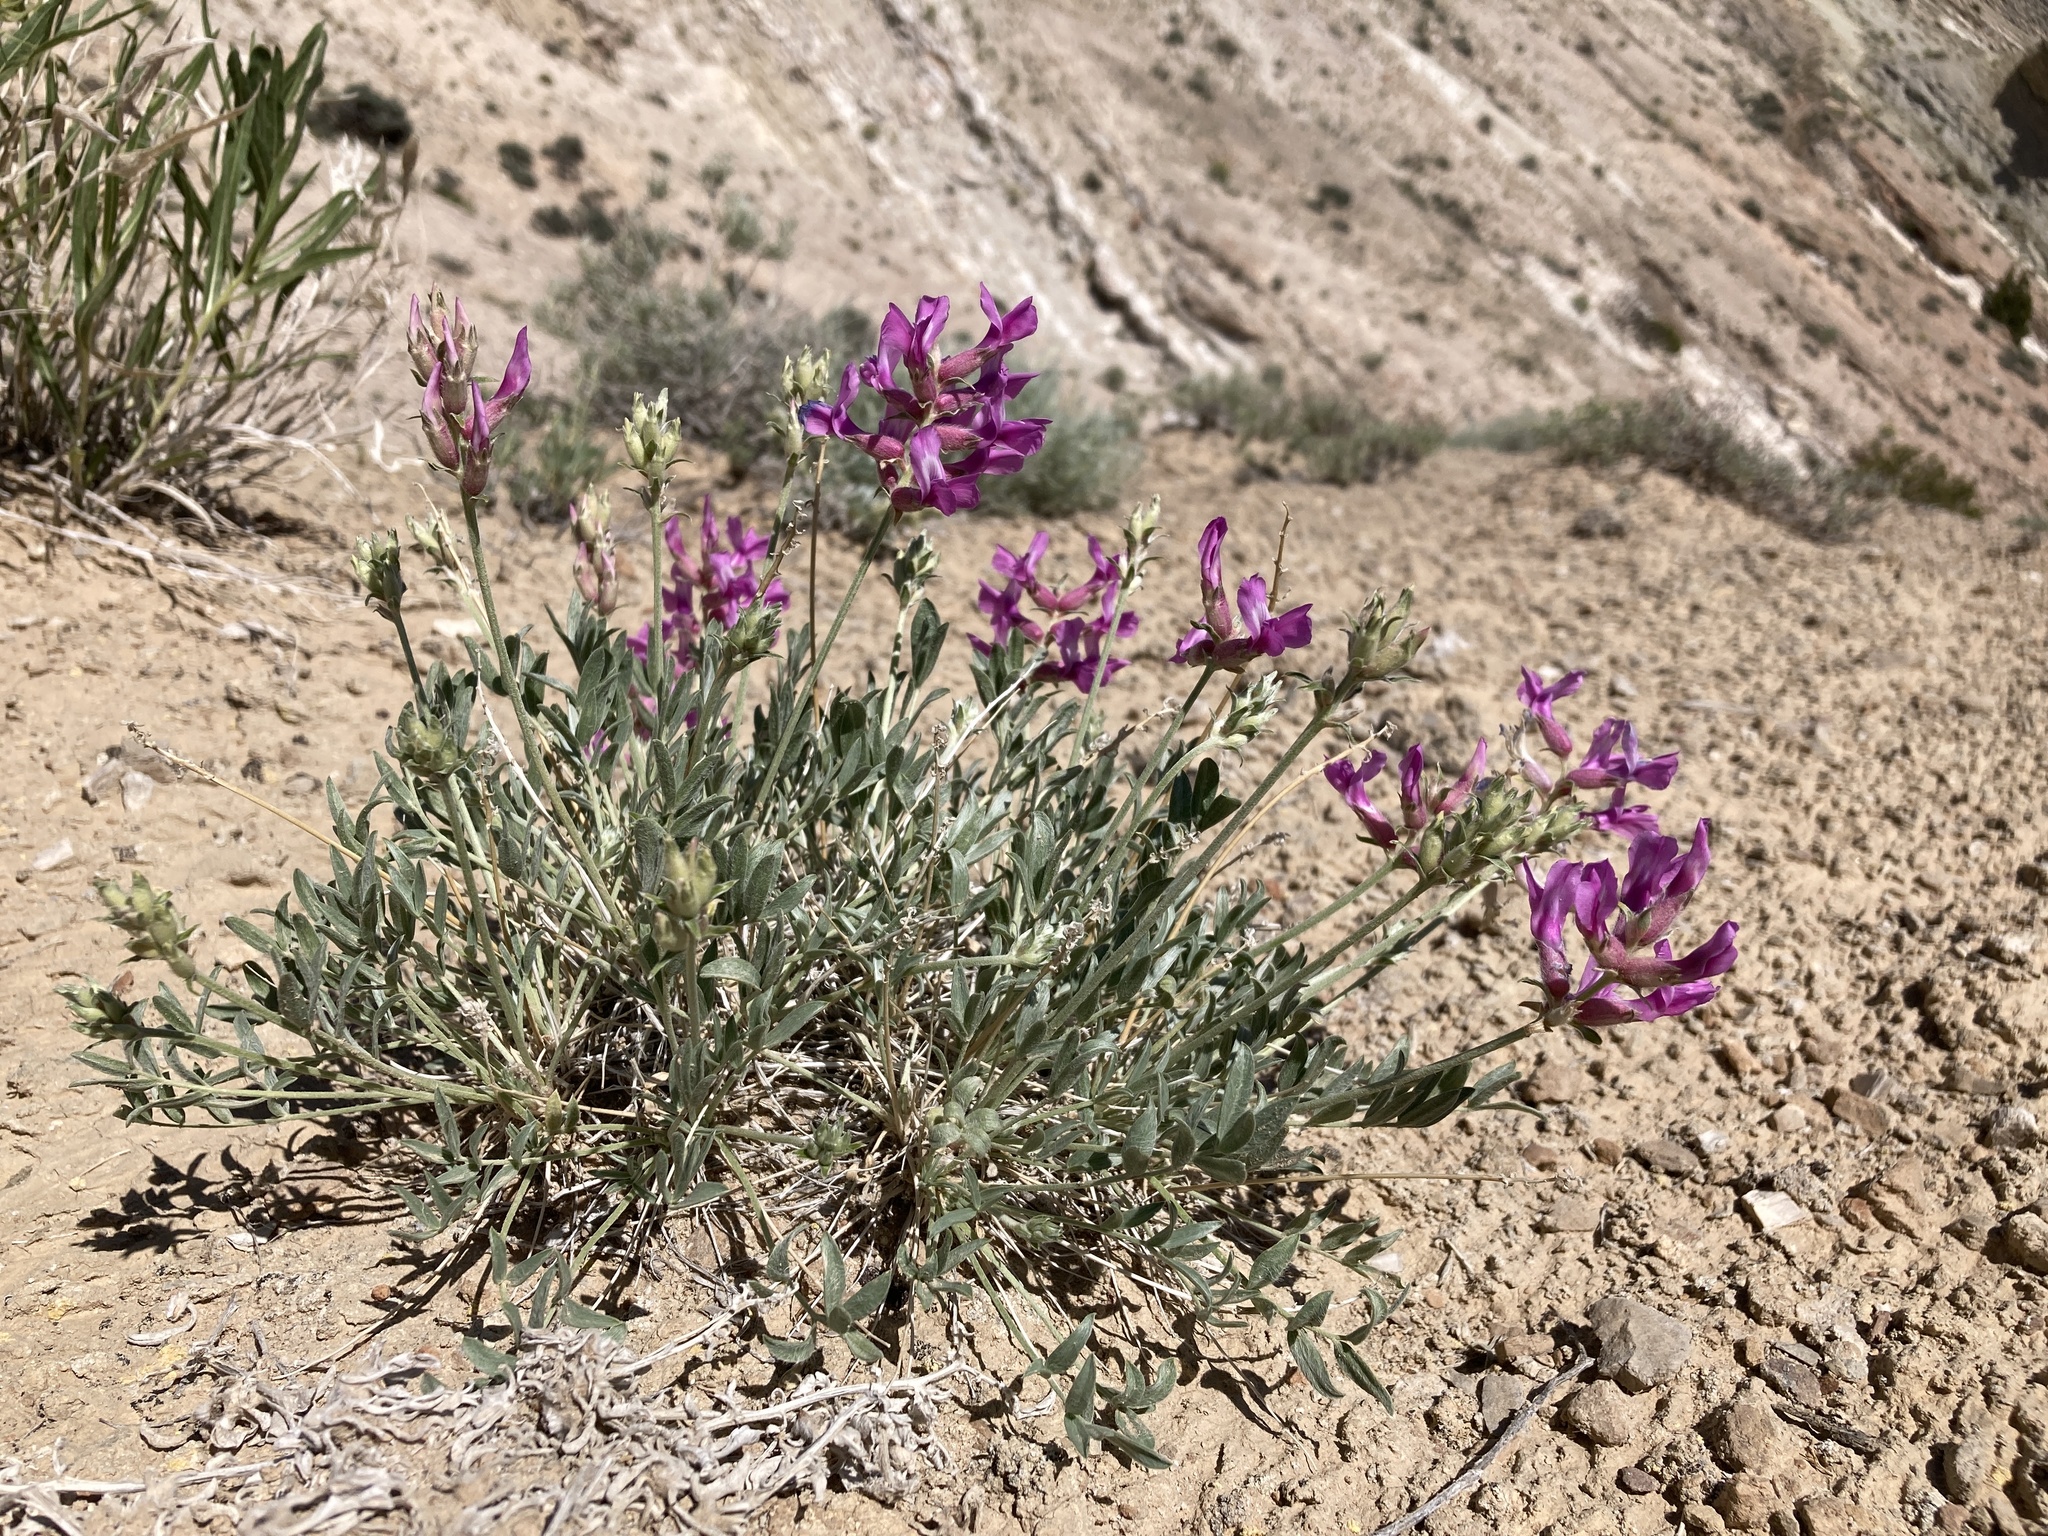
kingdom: Plantae
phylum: Tracheophyta
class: Magnoliopsida
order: Fabales
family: Fabaceae
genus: Oxytropis
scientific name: Oxytropis besseyi
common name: Bessey's locoweed
